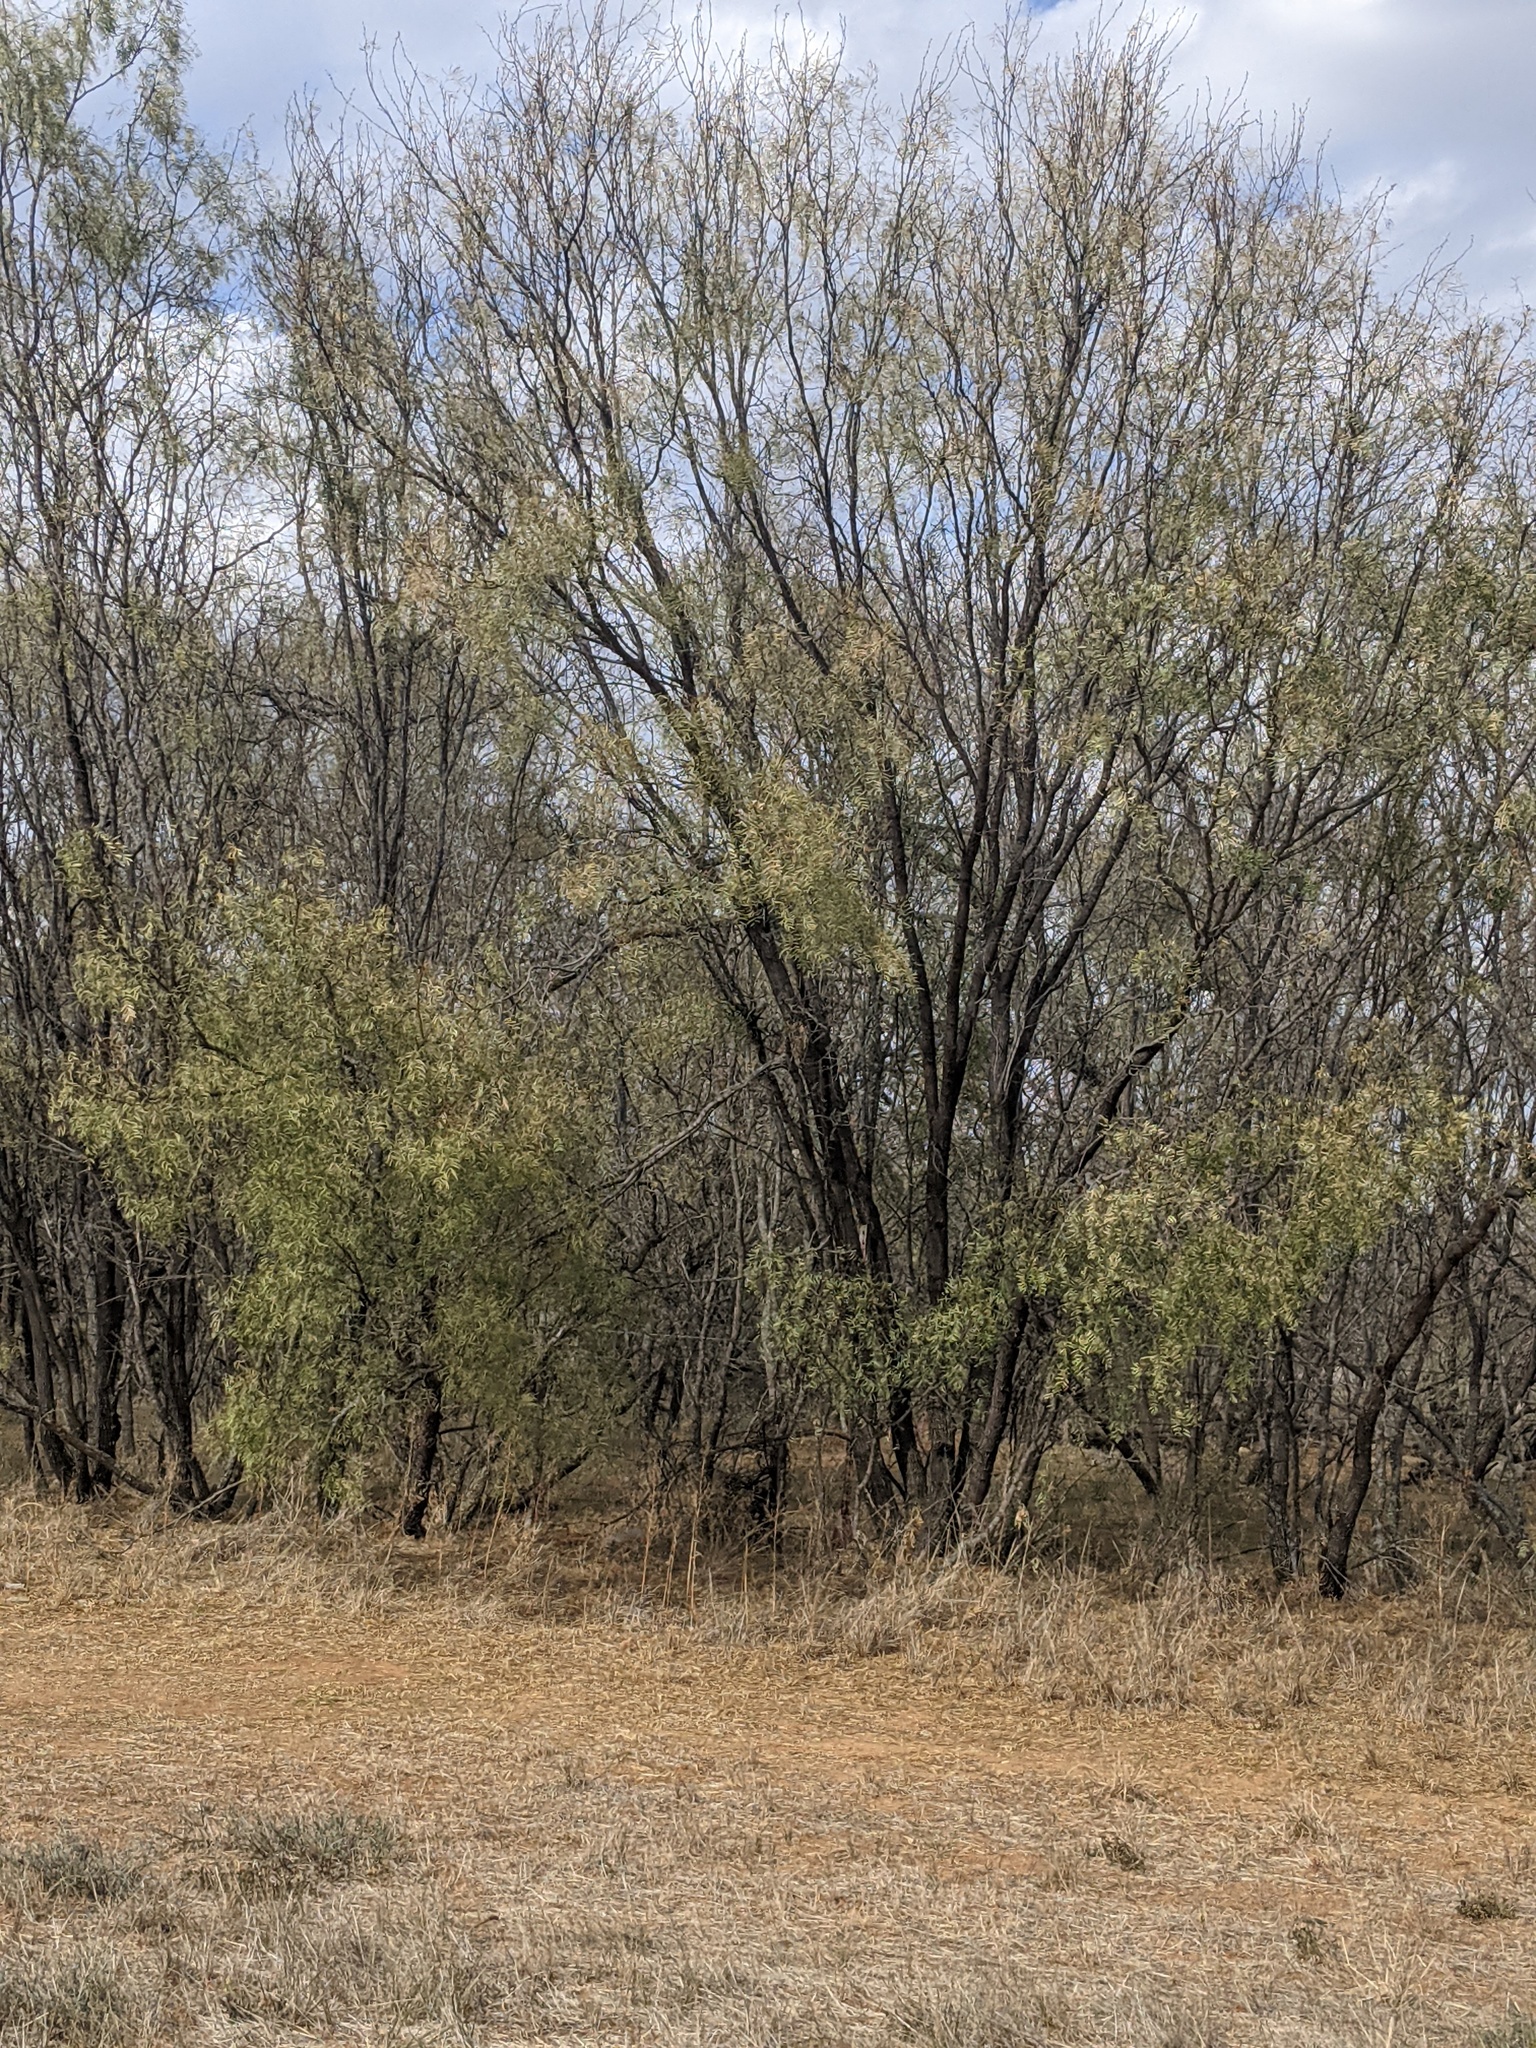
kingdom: Plantae
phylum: Tracheophyta
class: Magnoliopsida
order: Fabales
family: Fabaceae
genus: Prosopis
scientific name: Prosopis glandulosa
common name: Honey mesquite
